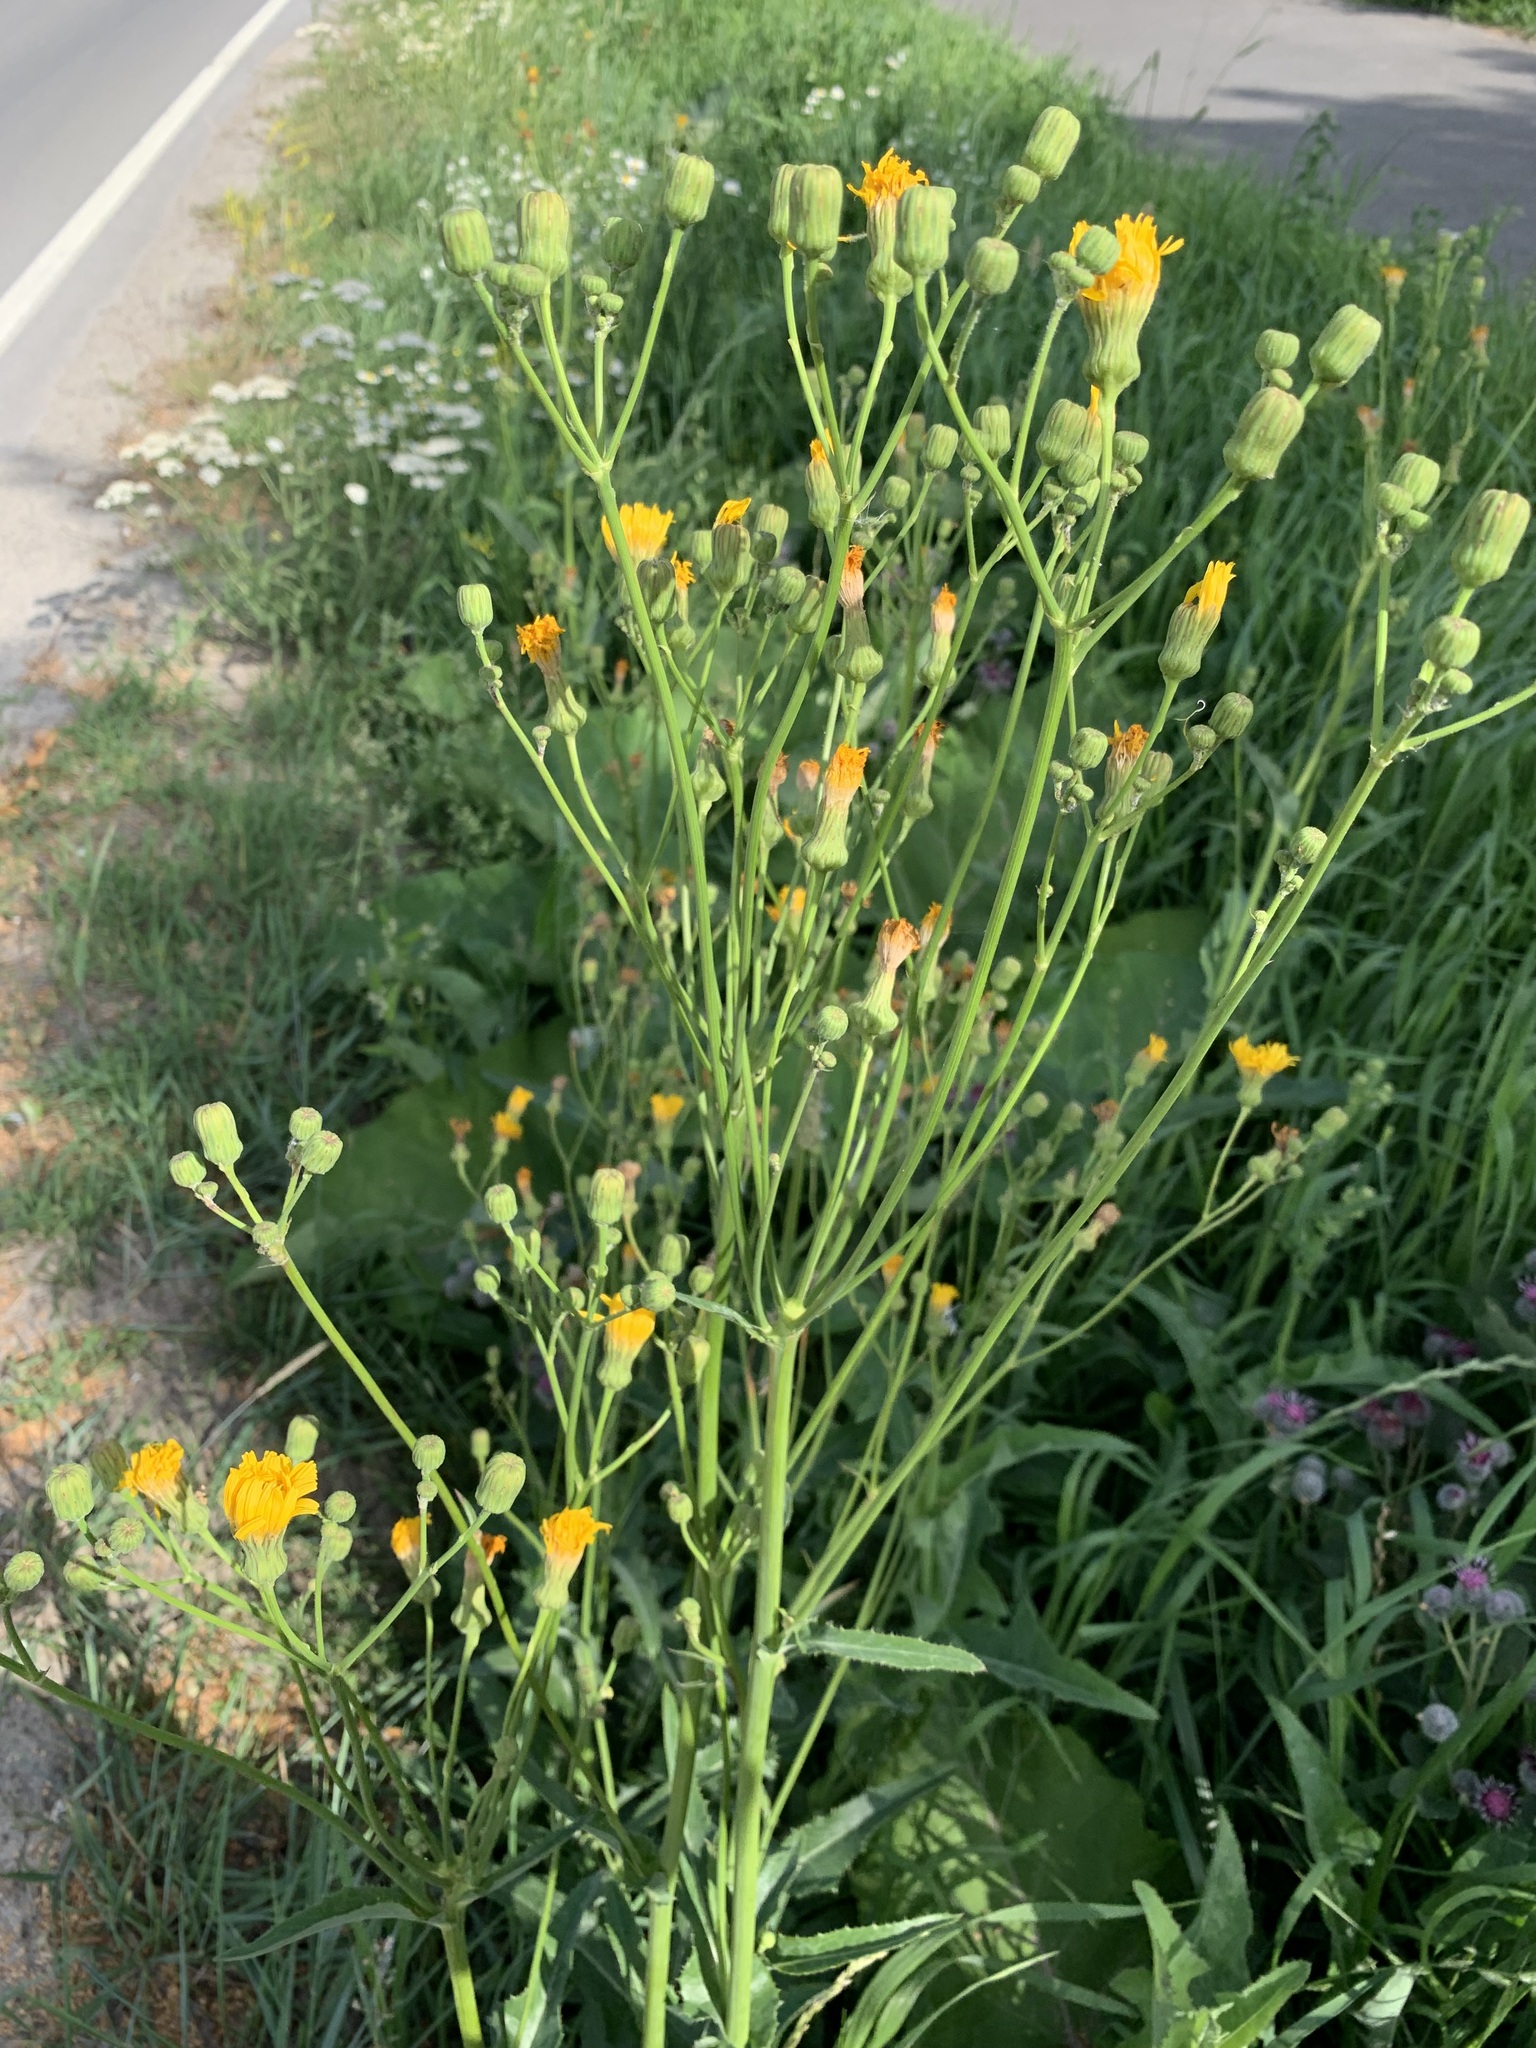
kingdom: Plantae
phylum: Tracheophyta
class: Magnoliopsida
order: Asterales
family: Asteraceae
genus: Sonchus
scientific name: Sonchus arvensis
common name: Perennial sow-thistle
